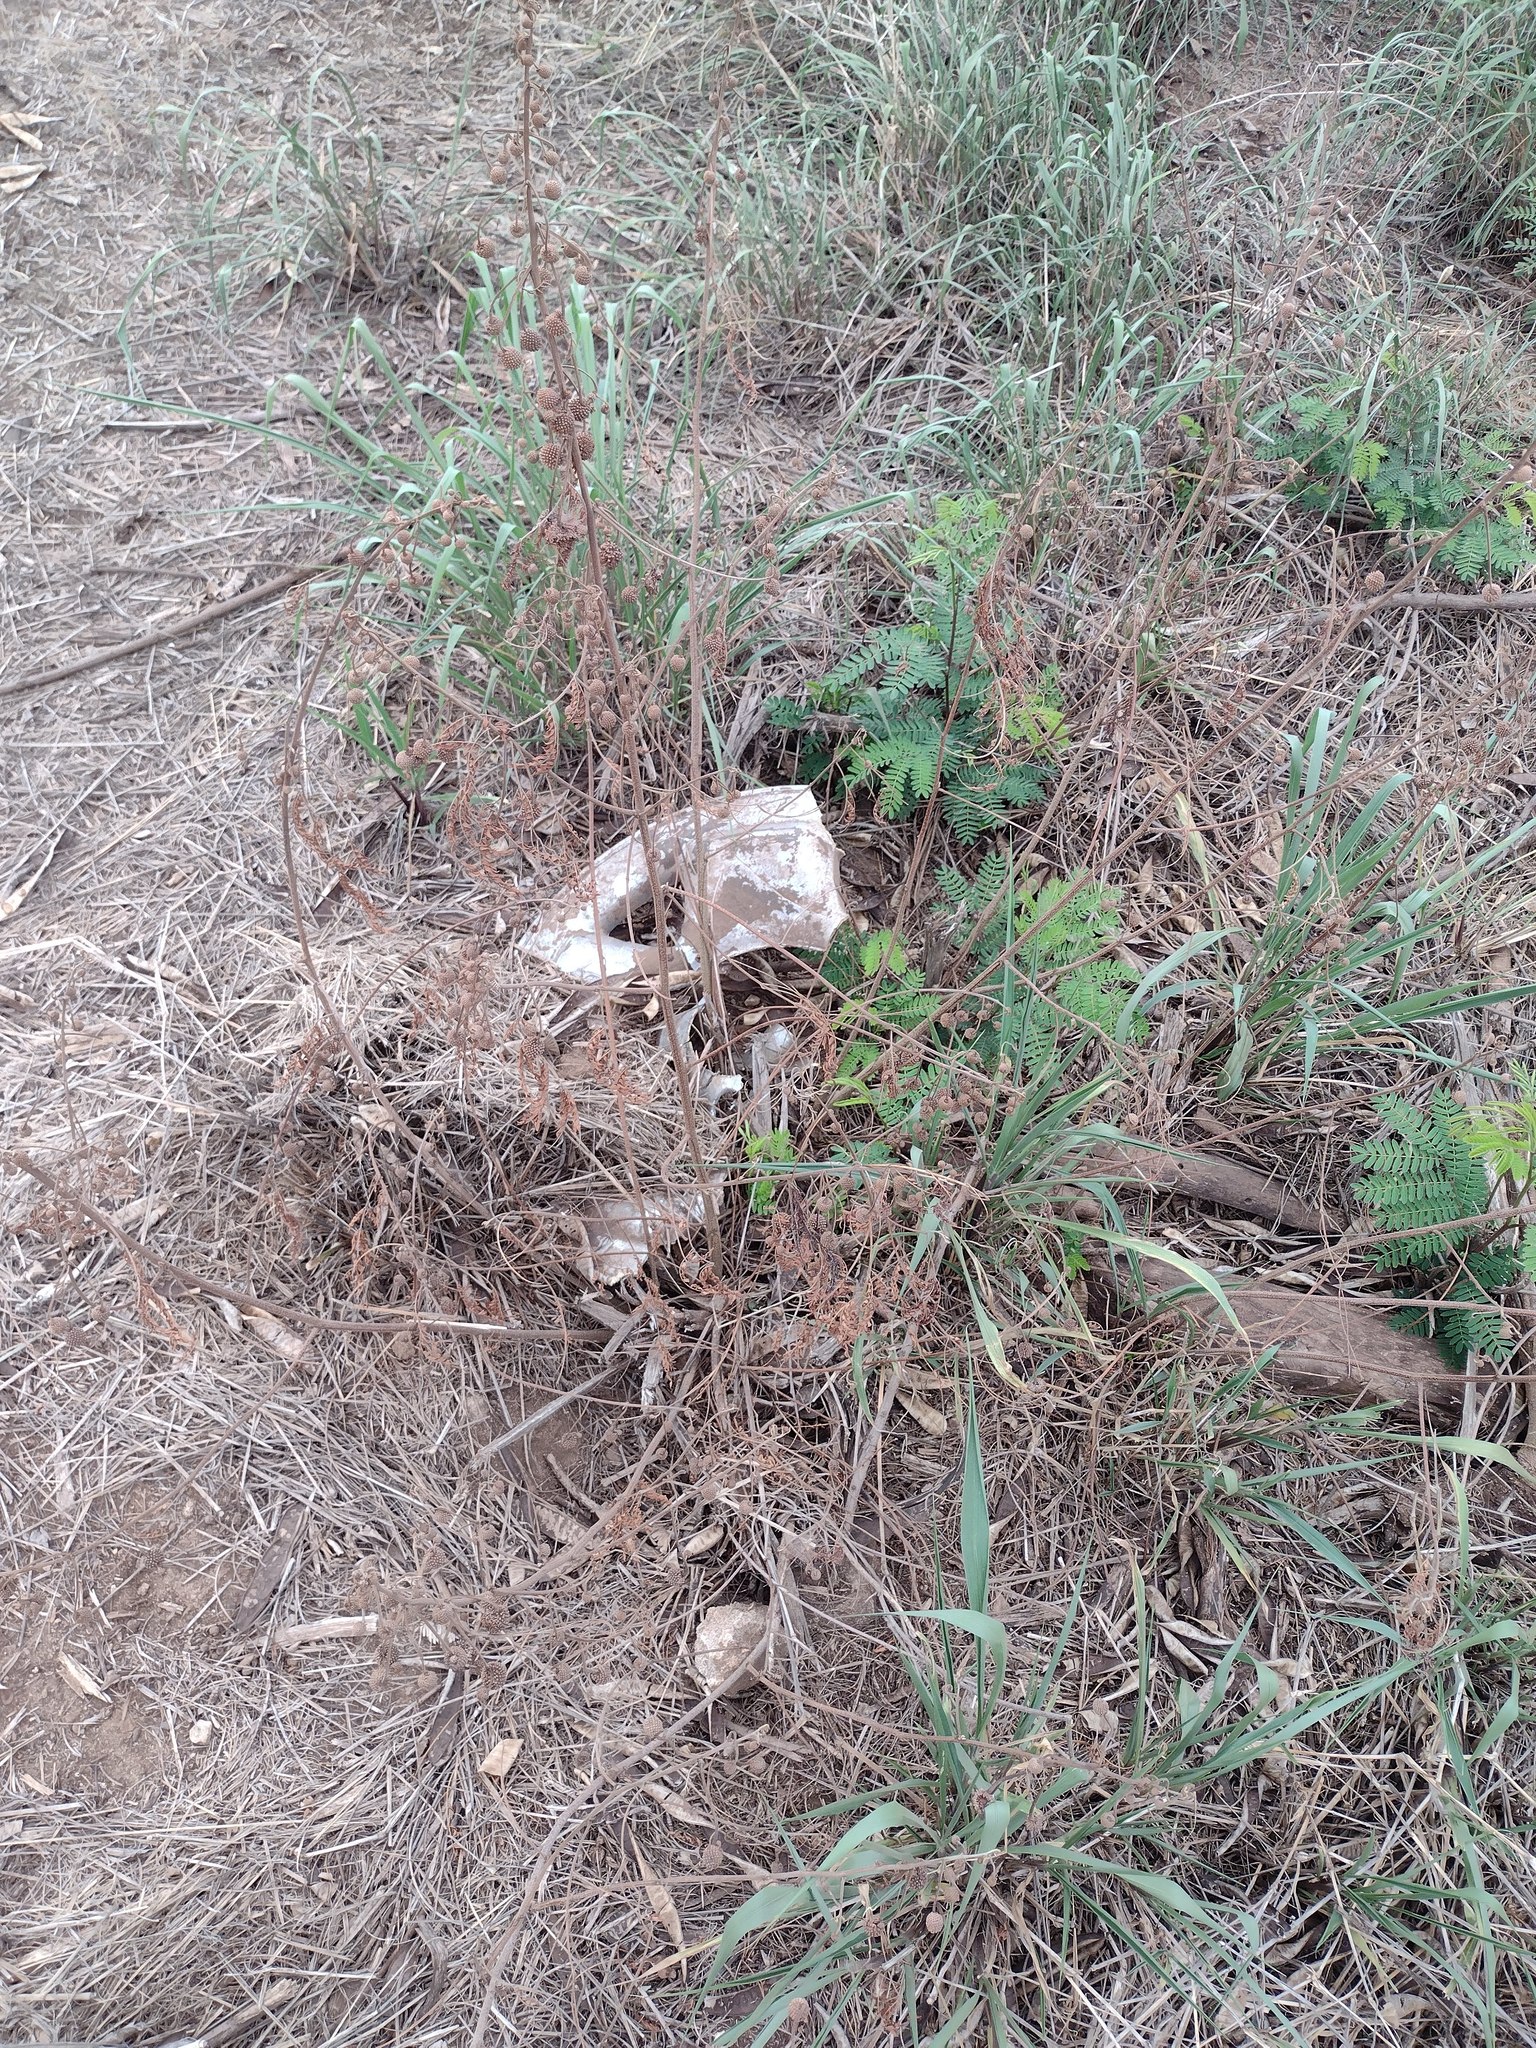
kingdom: Plantae
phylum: Tracheophyta
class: Magnoliopsida
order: Fabales
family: Fabaceae
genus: Leucaena
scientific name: Leucaena leucocephala
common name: White leadtree
